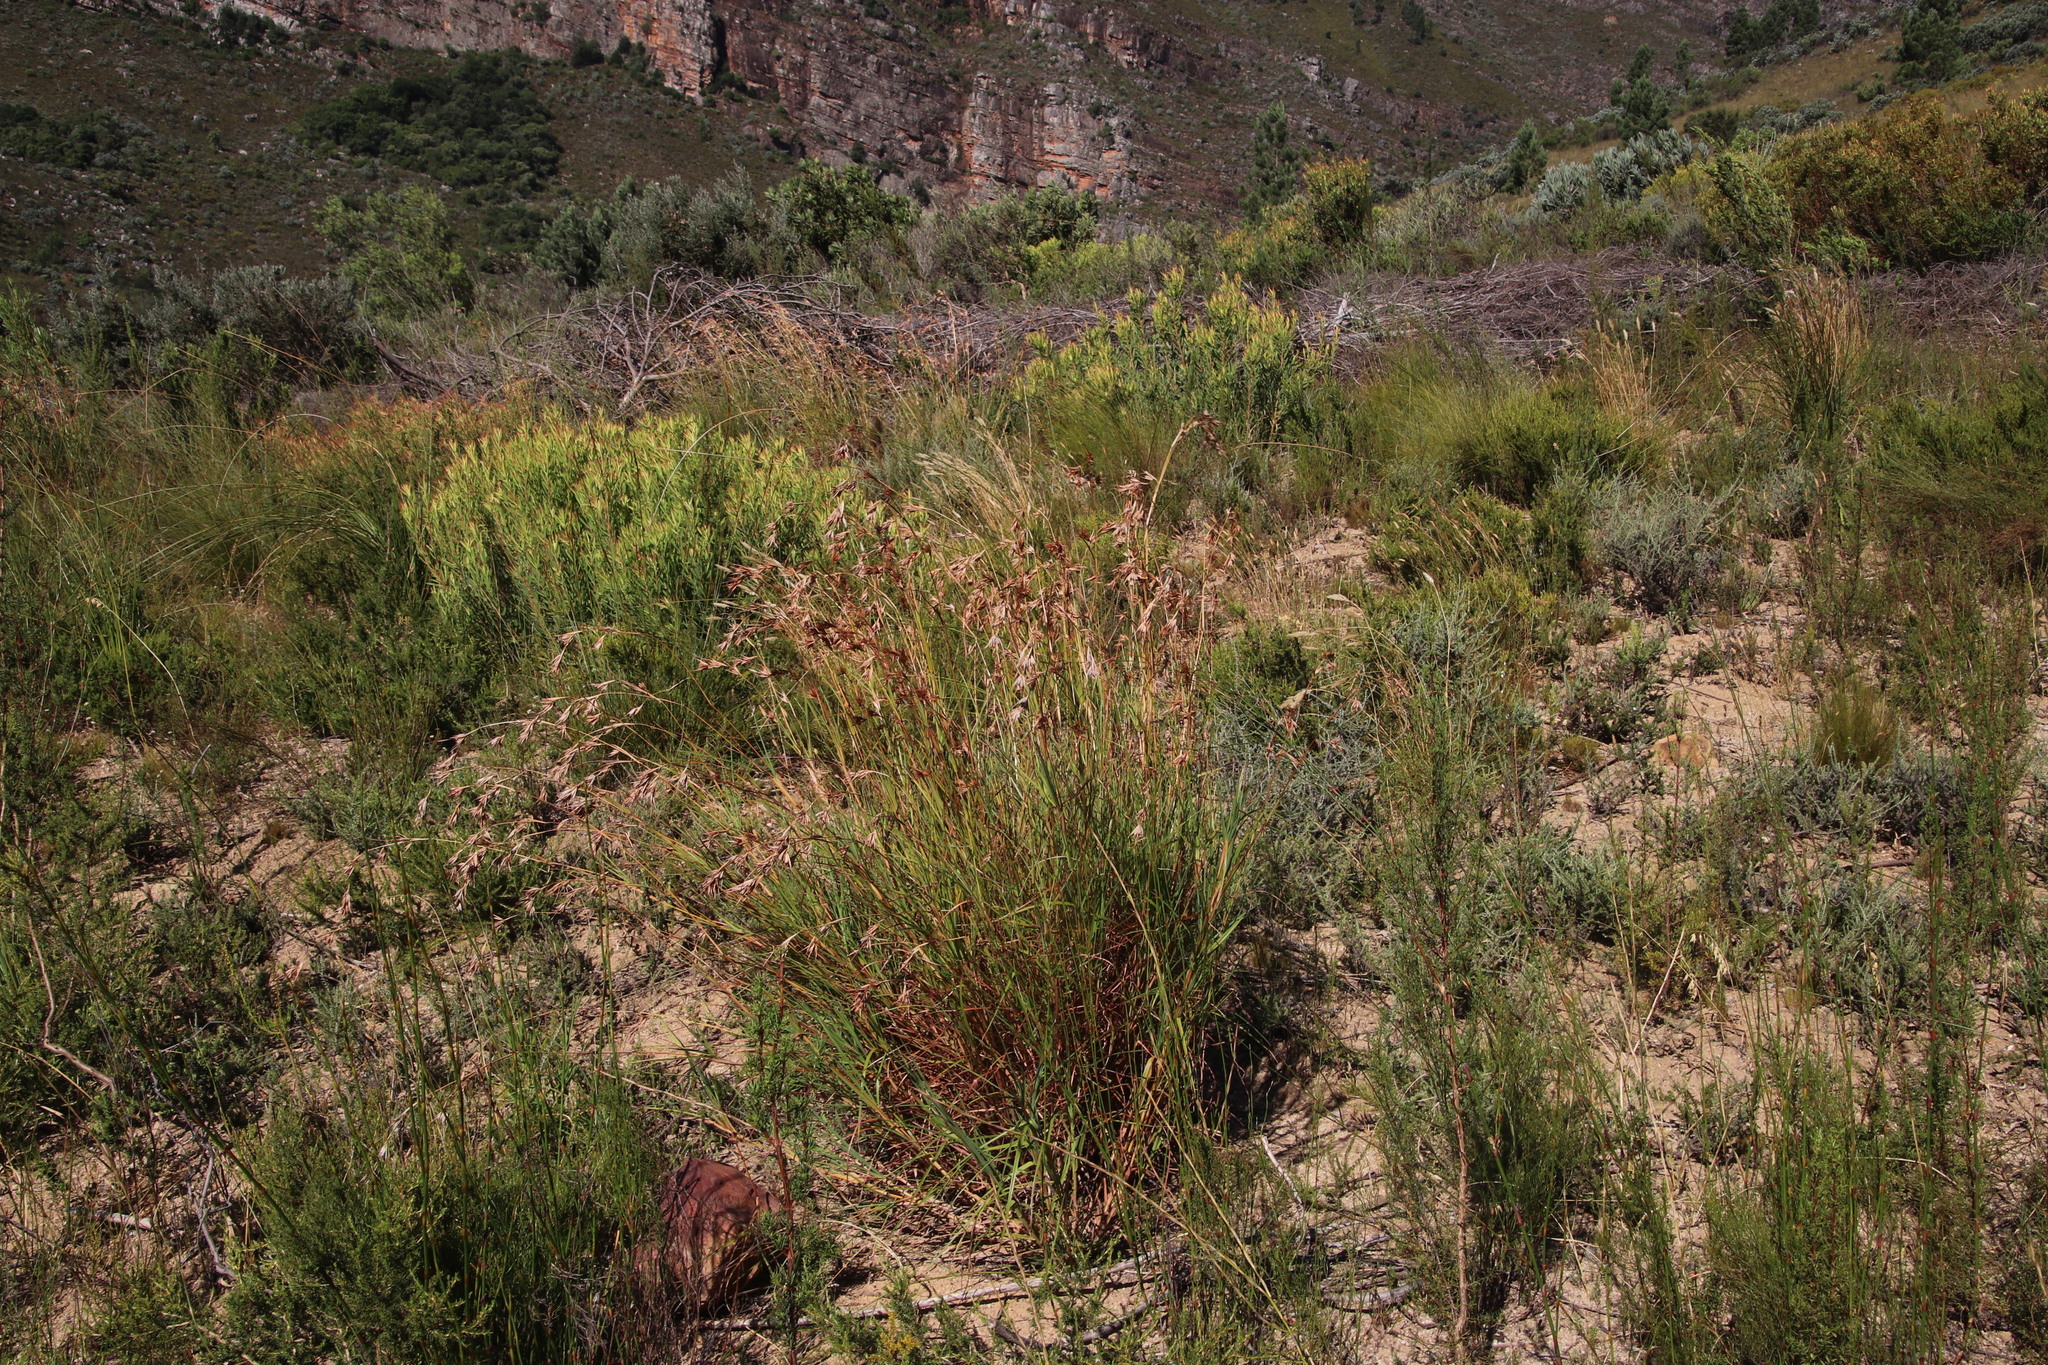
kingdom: Plantae
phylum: Tracheophyta
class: Liliopsida
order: Poales
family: Poaceae
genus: Themeda
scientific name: Themeda triandra
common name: Kangaroo grass
